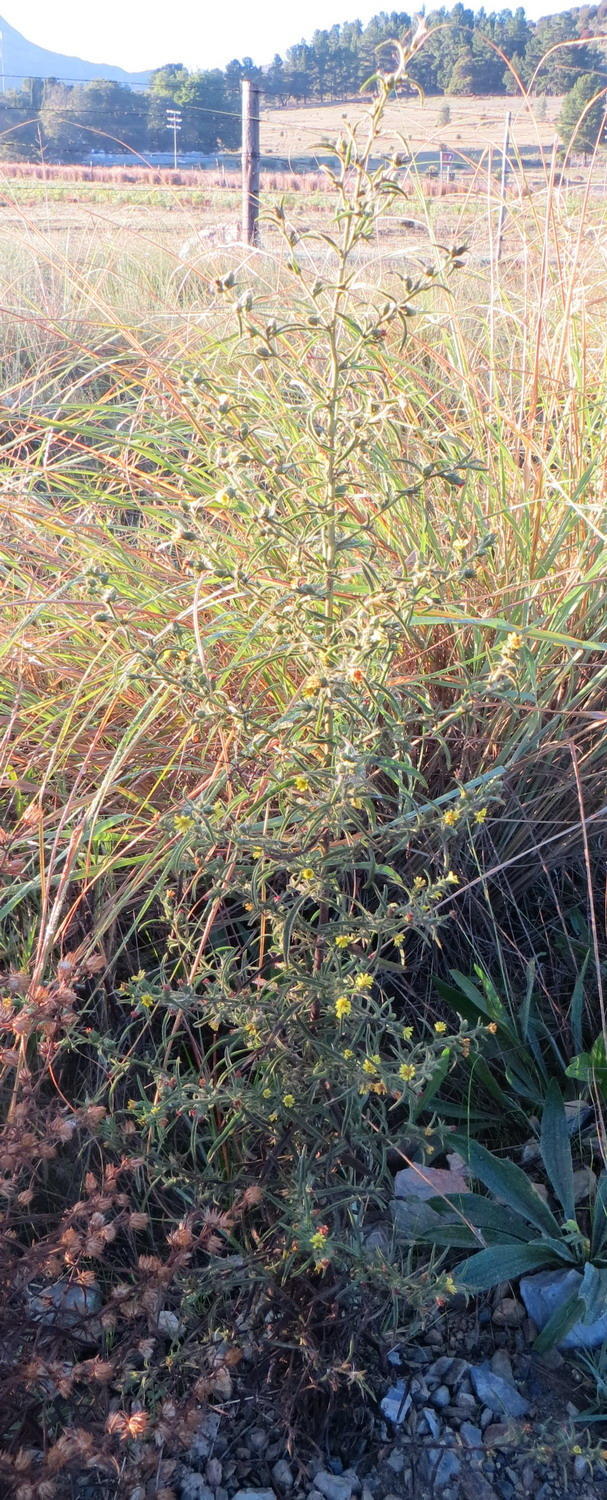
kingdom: Plantae
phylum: Tracheophyta
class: Magnoliopsida
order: Asterales
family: Asteraceae
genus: Dittrichia
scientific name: Dittrichia graveolens
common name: Stinking fleabane
